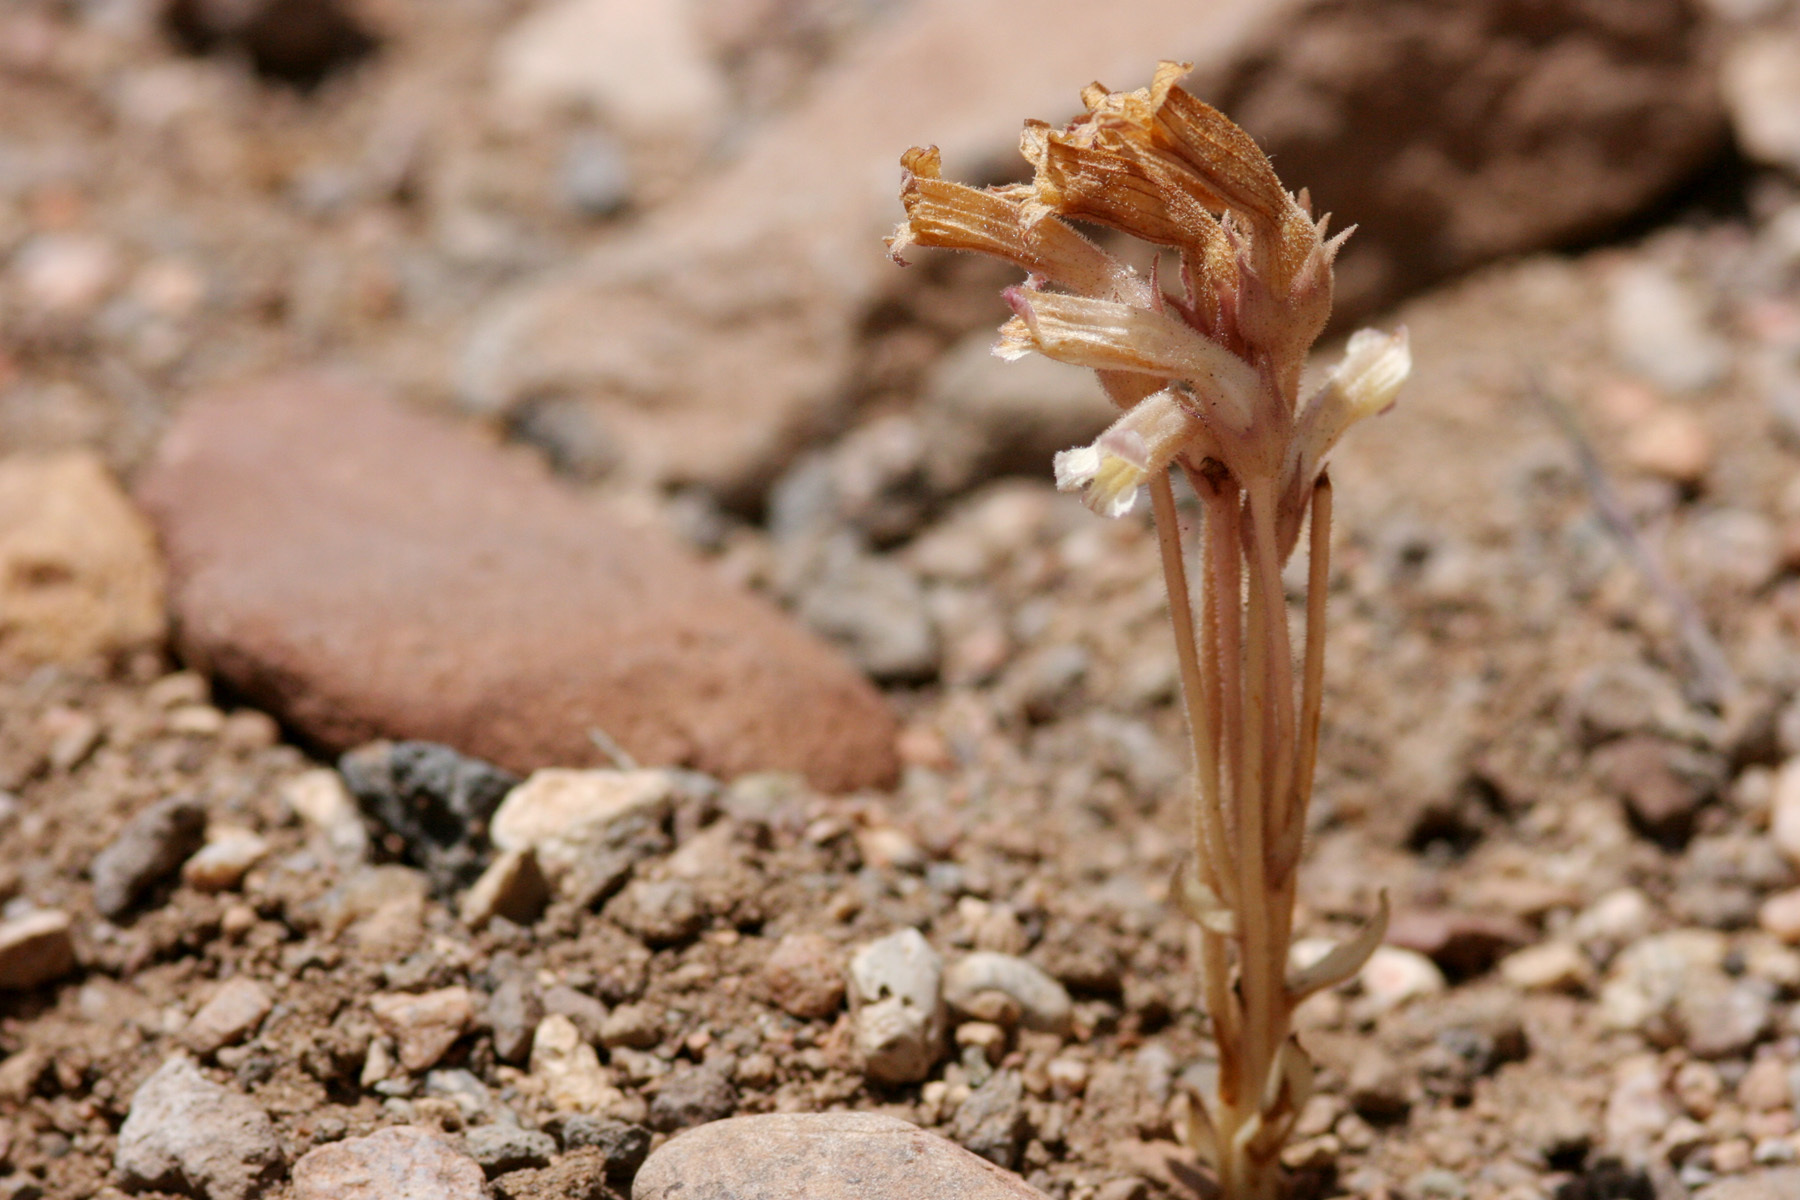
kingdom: Plantae
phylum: Tracheophyta
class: Magnoliopsida
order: Lamiales
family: Orobanchaceae
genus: Aphyllon
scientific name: Aphyllon fasciculatum
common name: Clustered broomrape
